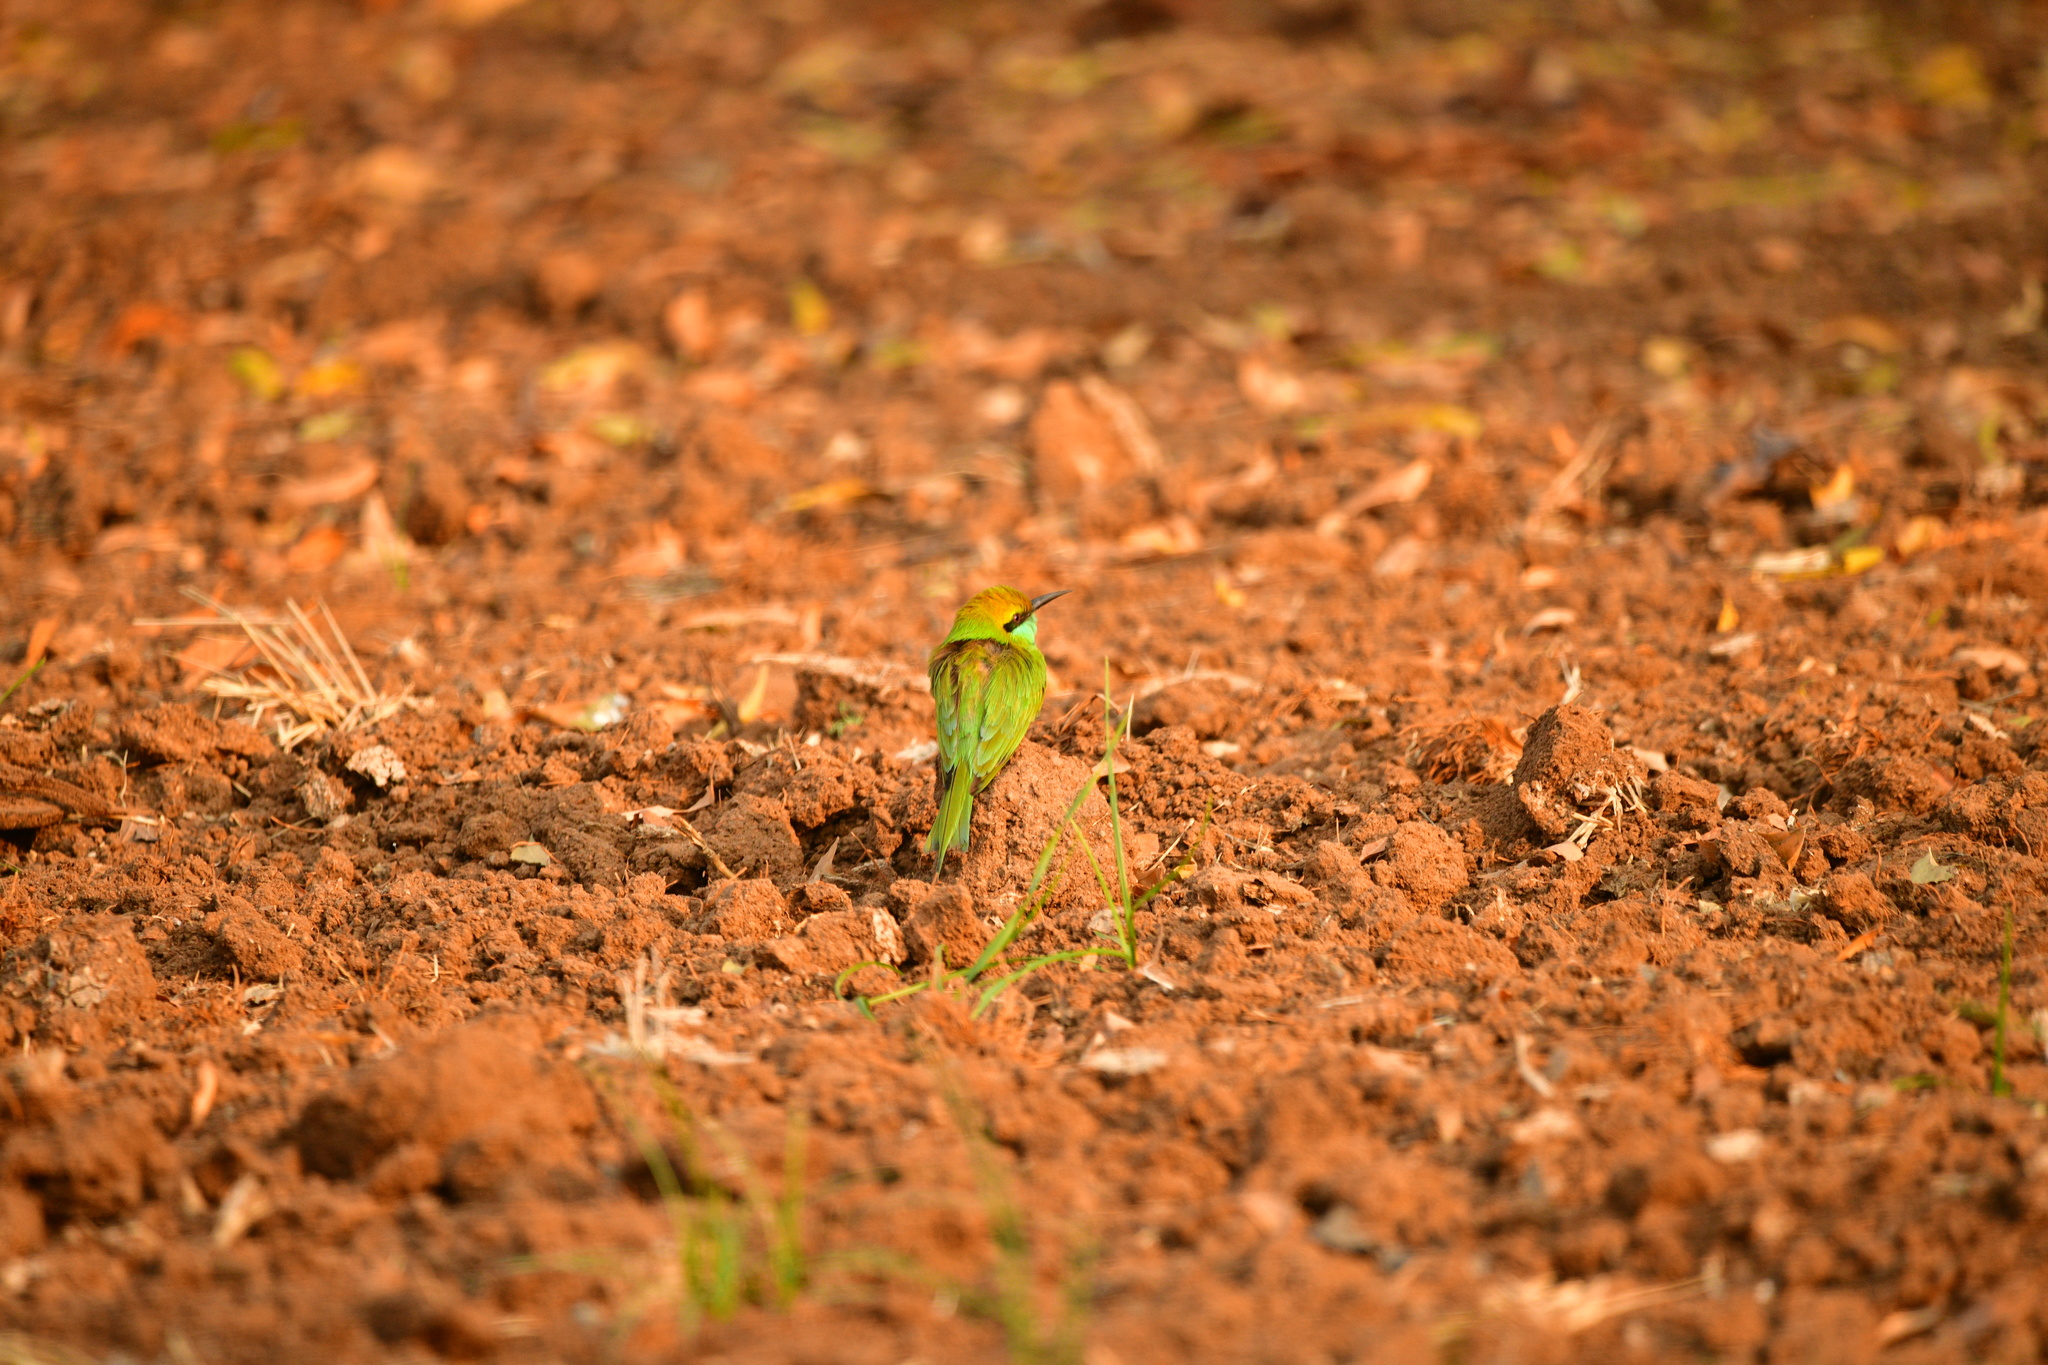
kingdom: Animalia
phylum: Chordata
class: Aves
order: Coraciiformes
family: Meropidae
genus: Merops
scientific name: Merops orientalis
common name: Green bee-eater
